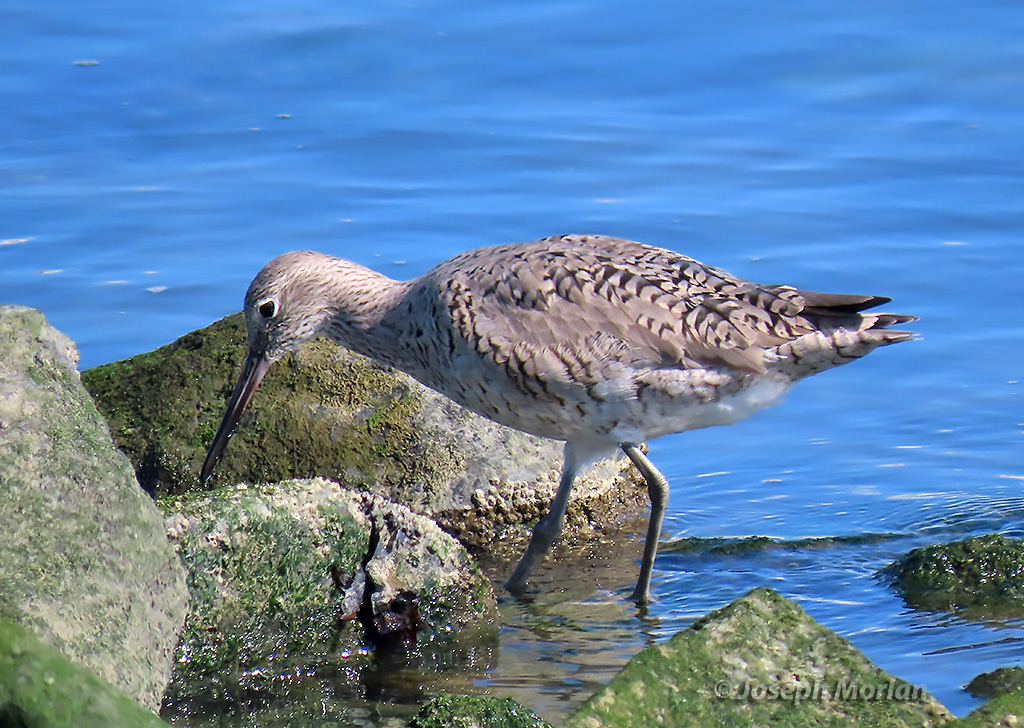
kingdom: Animalia
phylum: Chordata
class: Aves
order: Charadriiformes
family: Scolopacidae
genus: Tringa
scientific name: Tringa semipalmata
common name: Willet
